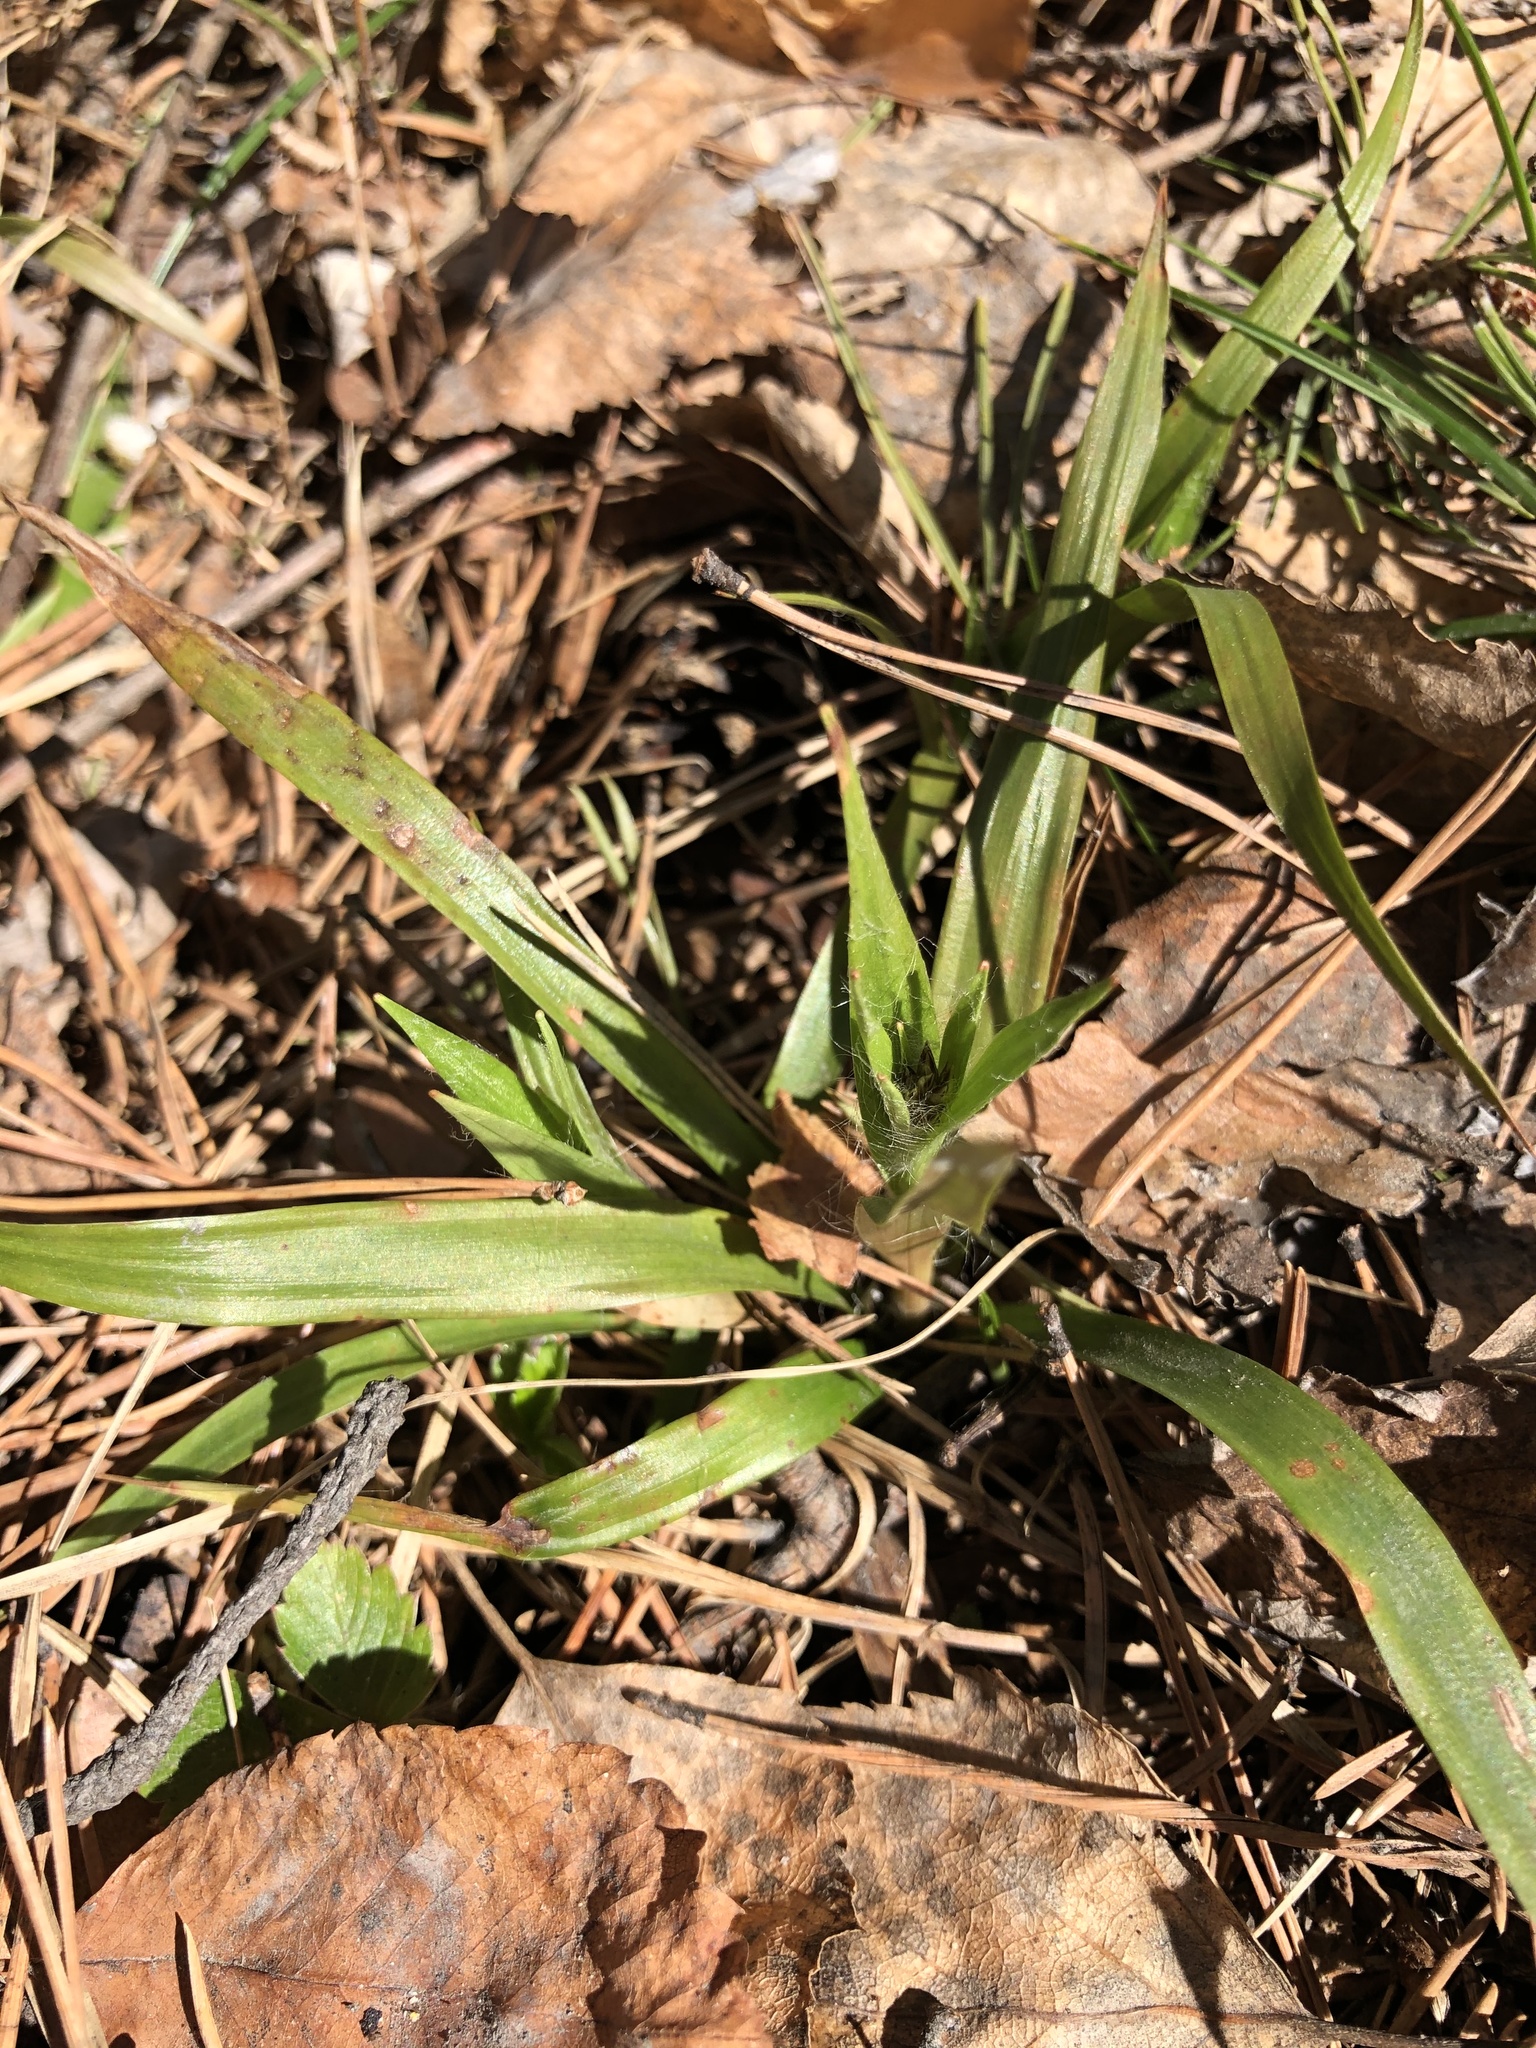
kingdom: Plantae
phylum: Tracheophyta
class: Liliopsida
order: Poales
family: Juncaceae
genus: Luzula
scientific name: Luzula pilosa
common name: Hairy wood-rush
